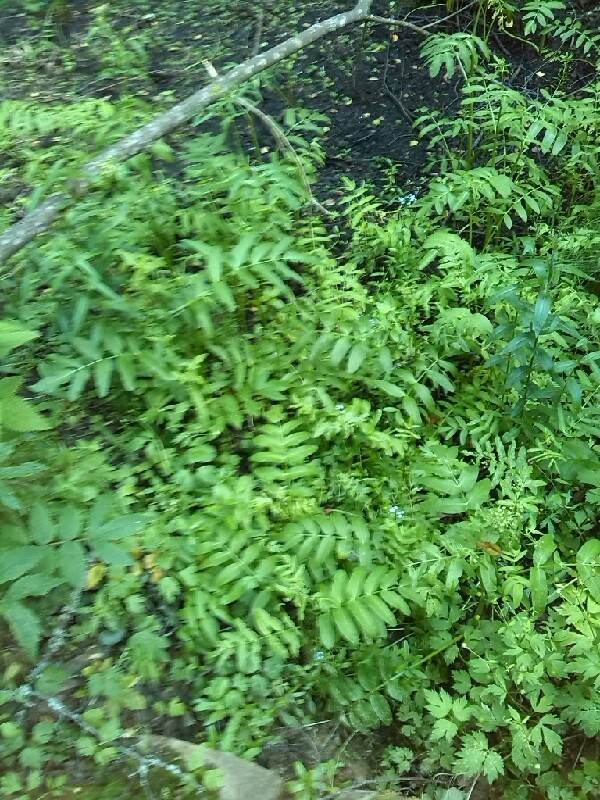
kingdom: Plantae
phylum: Tracheophyta
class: Magnoliopsida
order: Apiales
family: Apiaceae
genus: Sium
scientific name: Sium latifolium
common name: Greater water-parsnip
